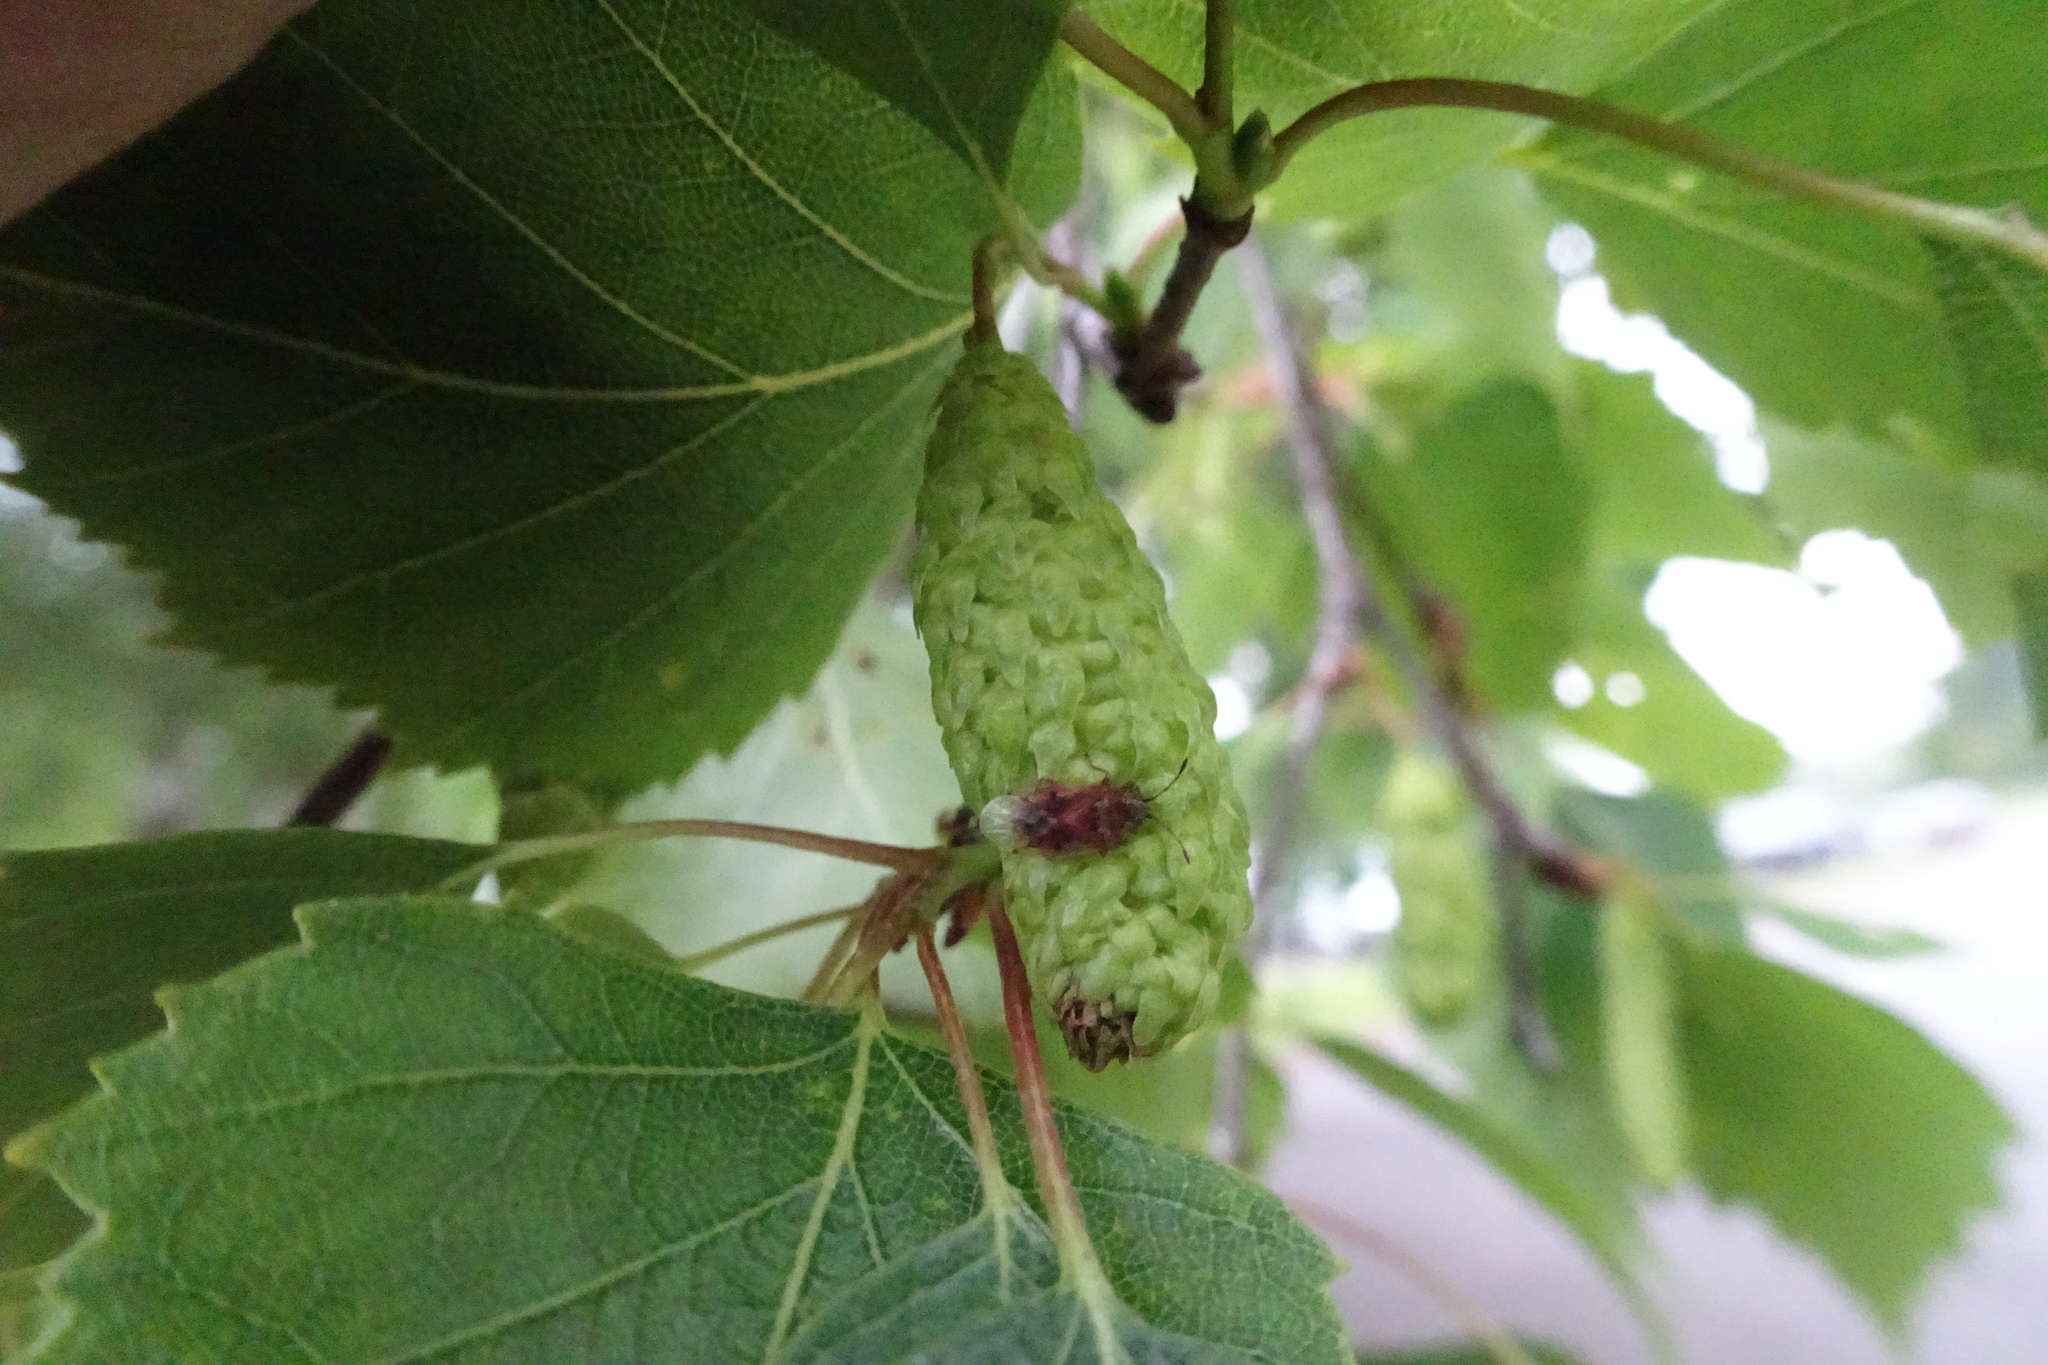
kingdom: Animalia
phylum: Arthropoda
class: Insecta
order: Hemiptera
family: Lygaeidae
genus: Kleidocerys
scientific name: Kleidocerys resedae
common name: Birch catkin bug
